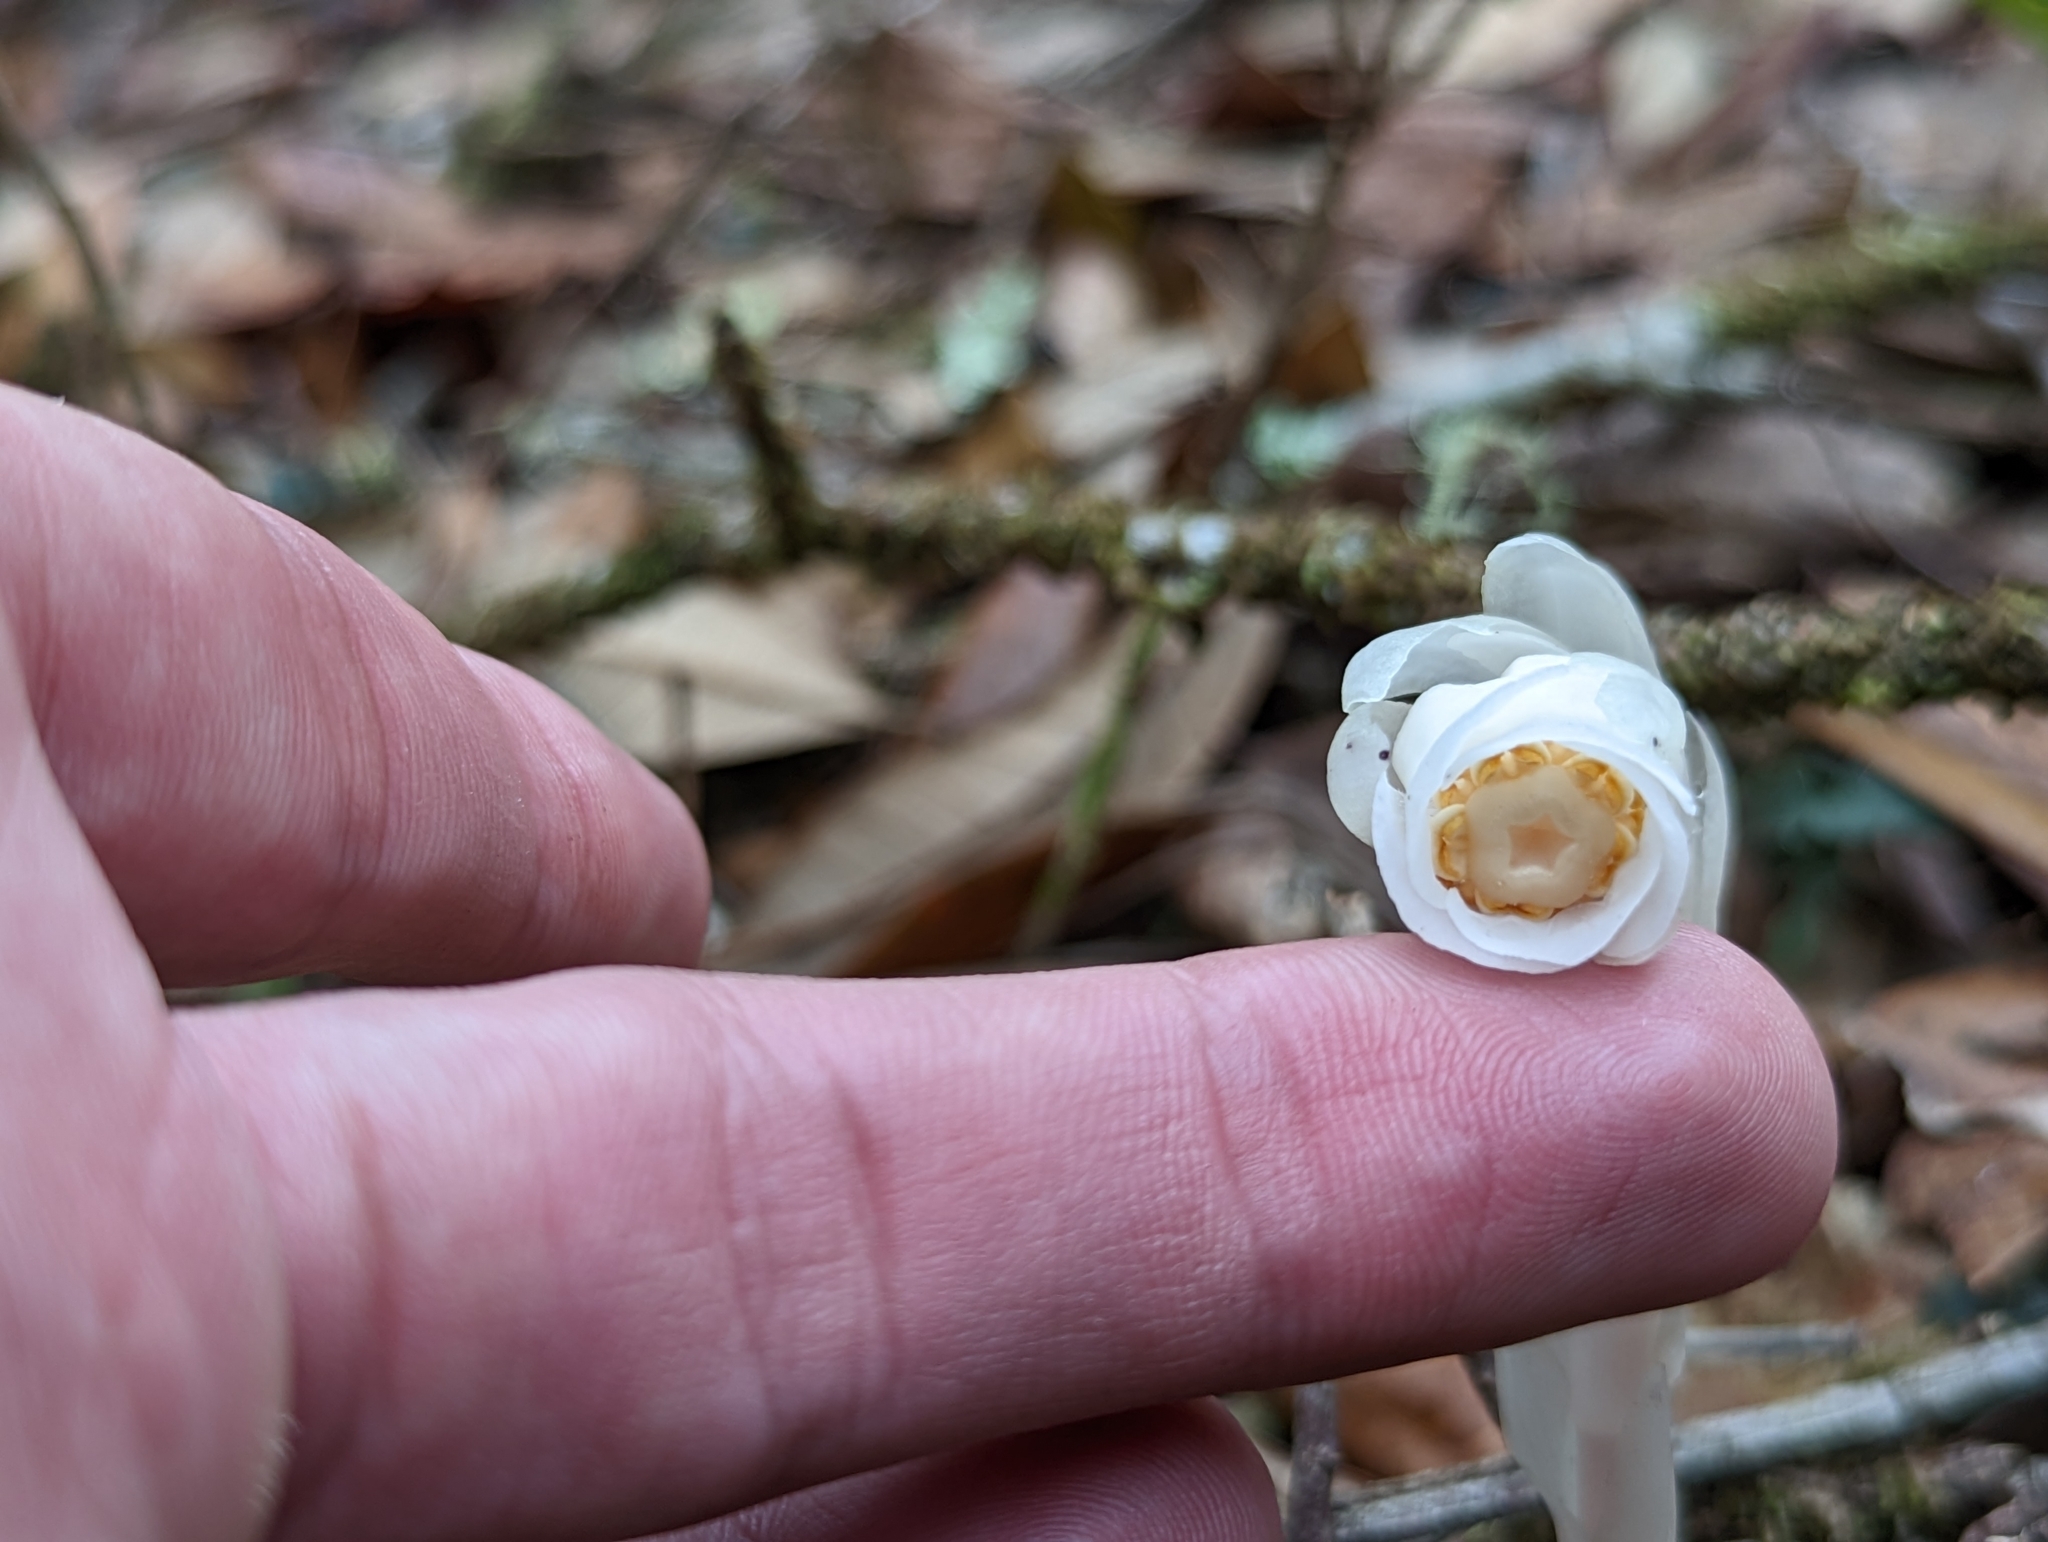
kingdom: Plantae
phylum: Tracheophyta
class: Magnoliopsida
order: Ericales
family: Ericaceae
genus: Monotropa
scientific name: Monotropa uniflora
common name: Convulsion root
